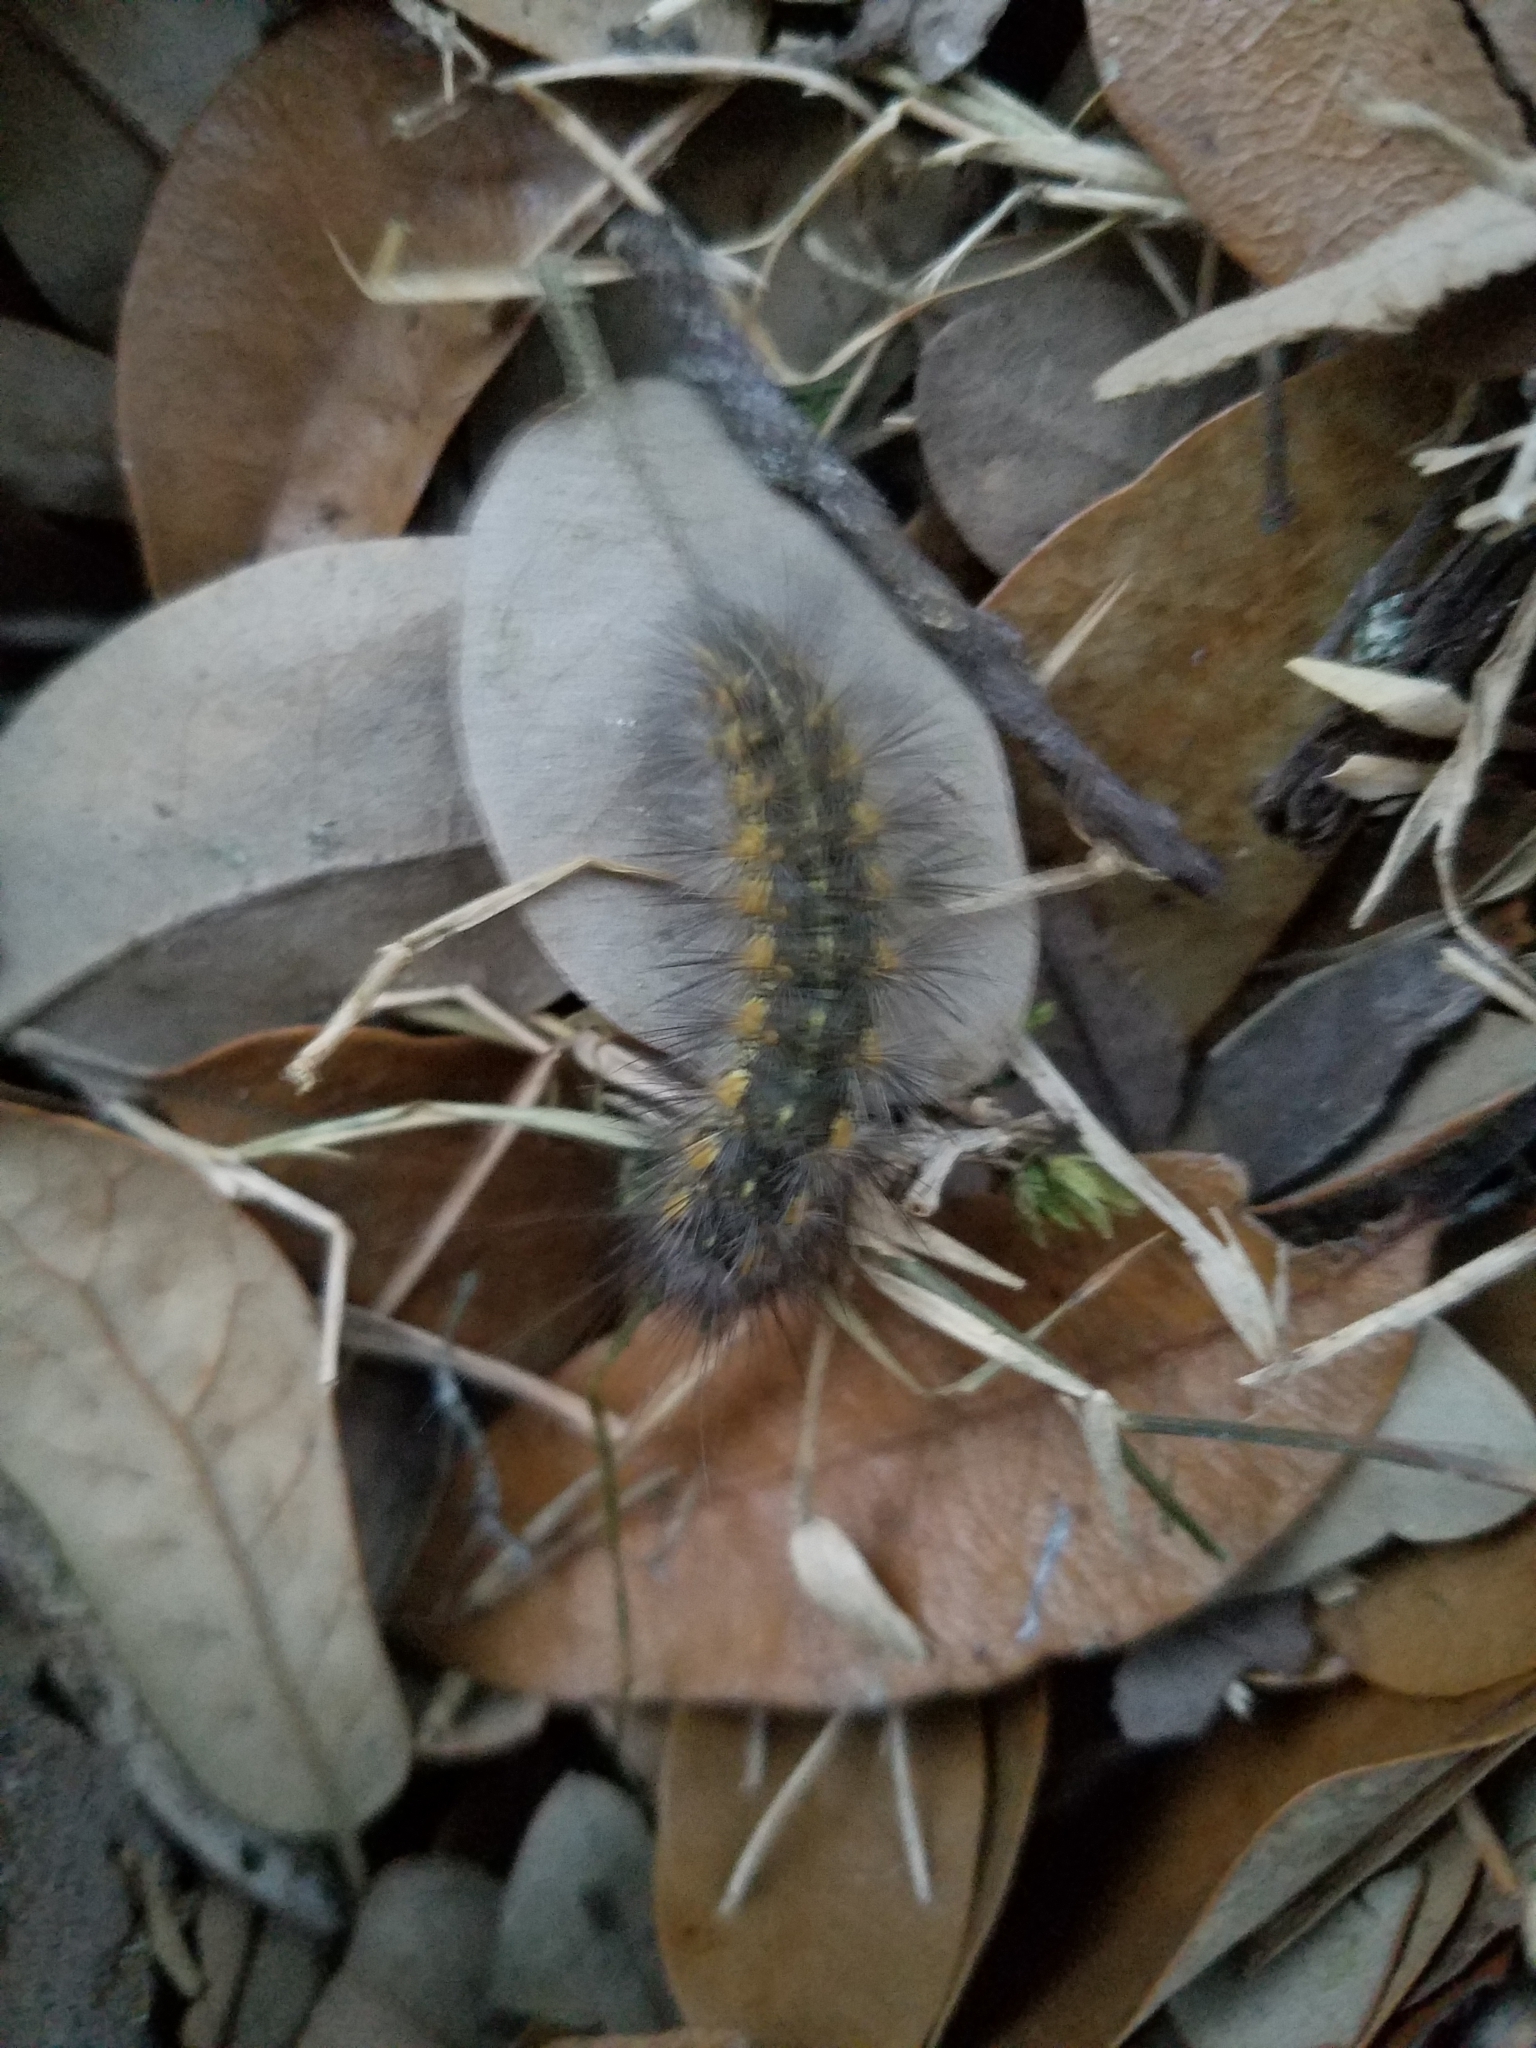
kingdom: Animalia
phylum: Arthropoda
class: Insecta
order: Lepidoptera
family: Erebidae
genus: Estigmene
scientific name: Estigmene acrea
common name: Salt marsh moth
